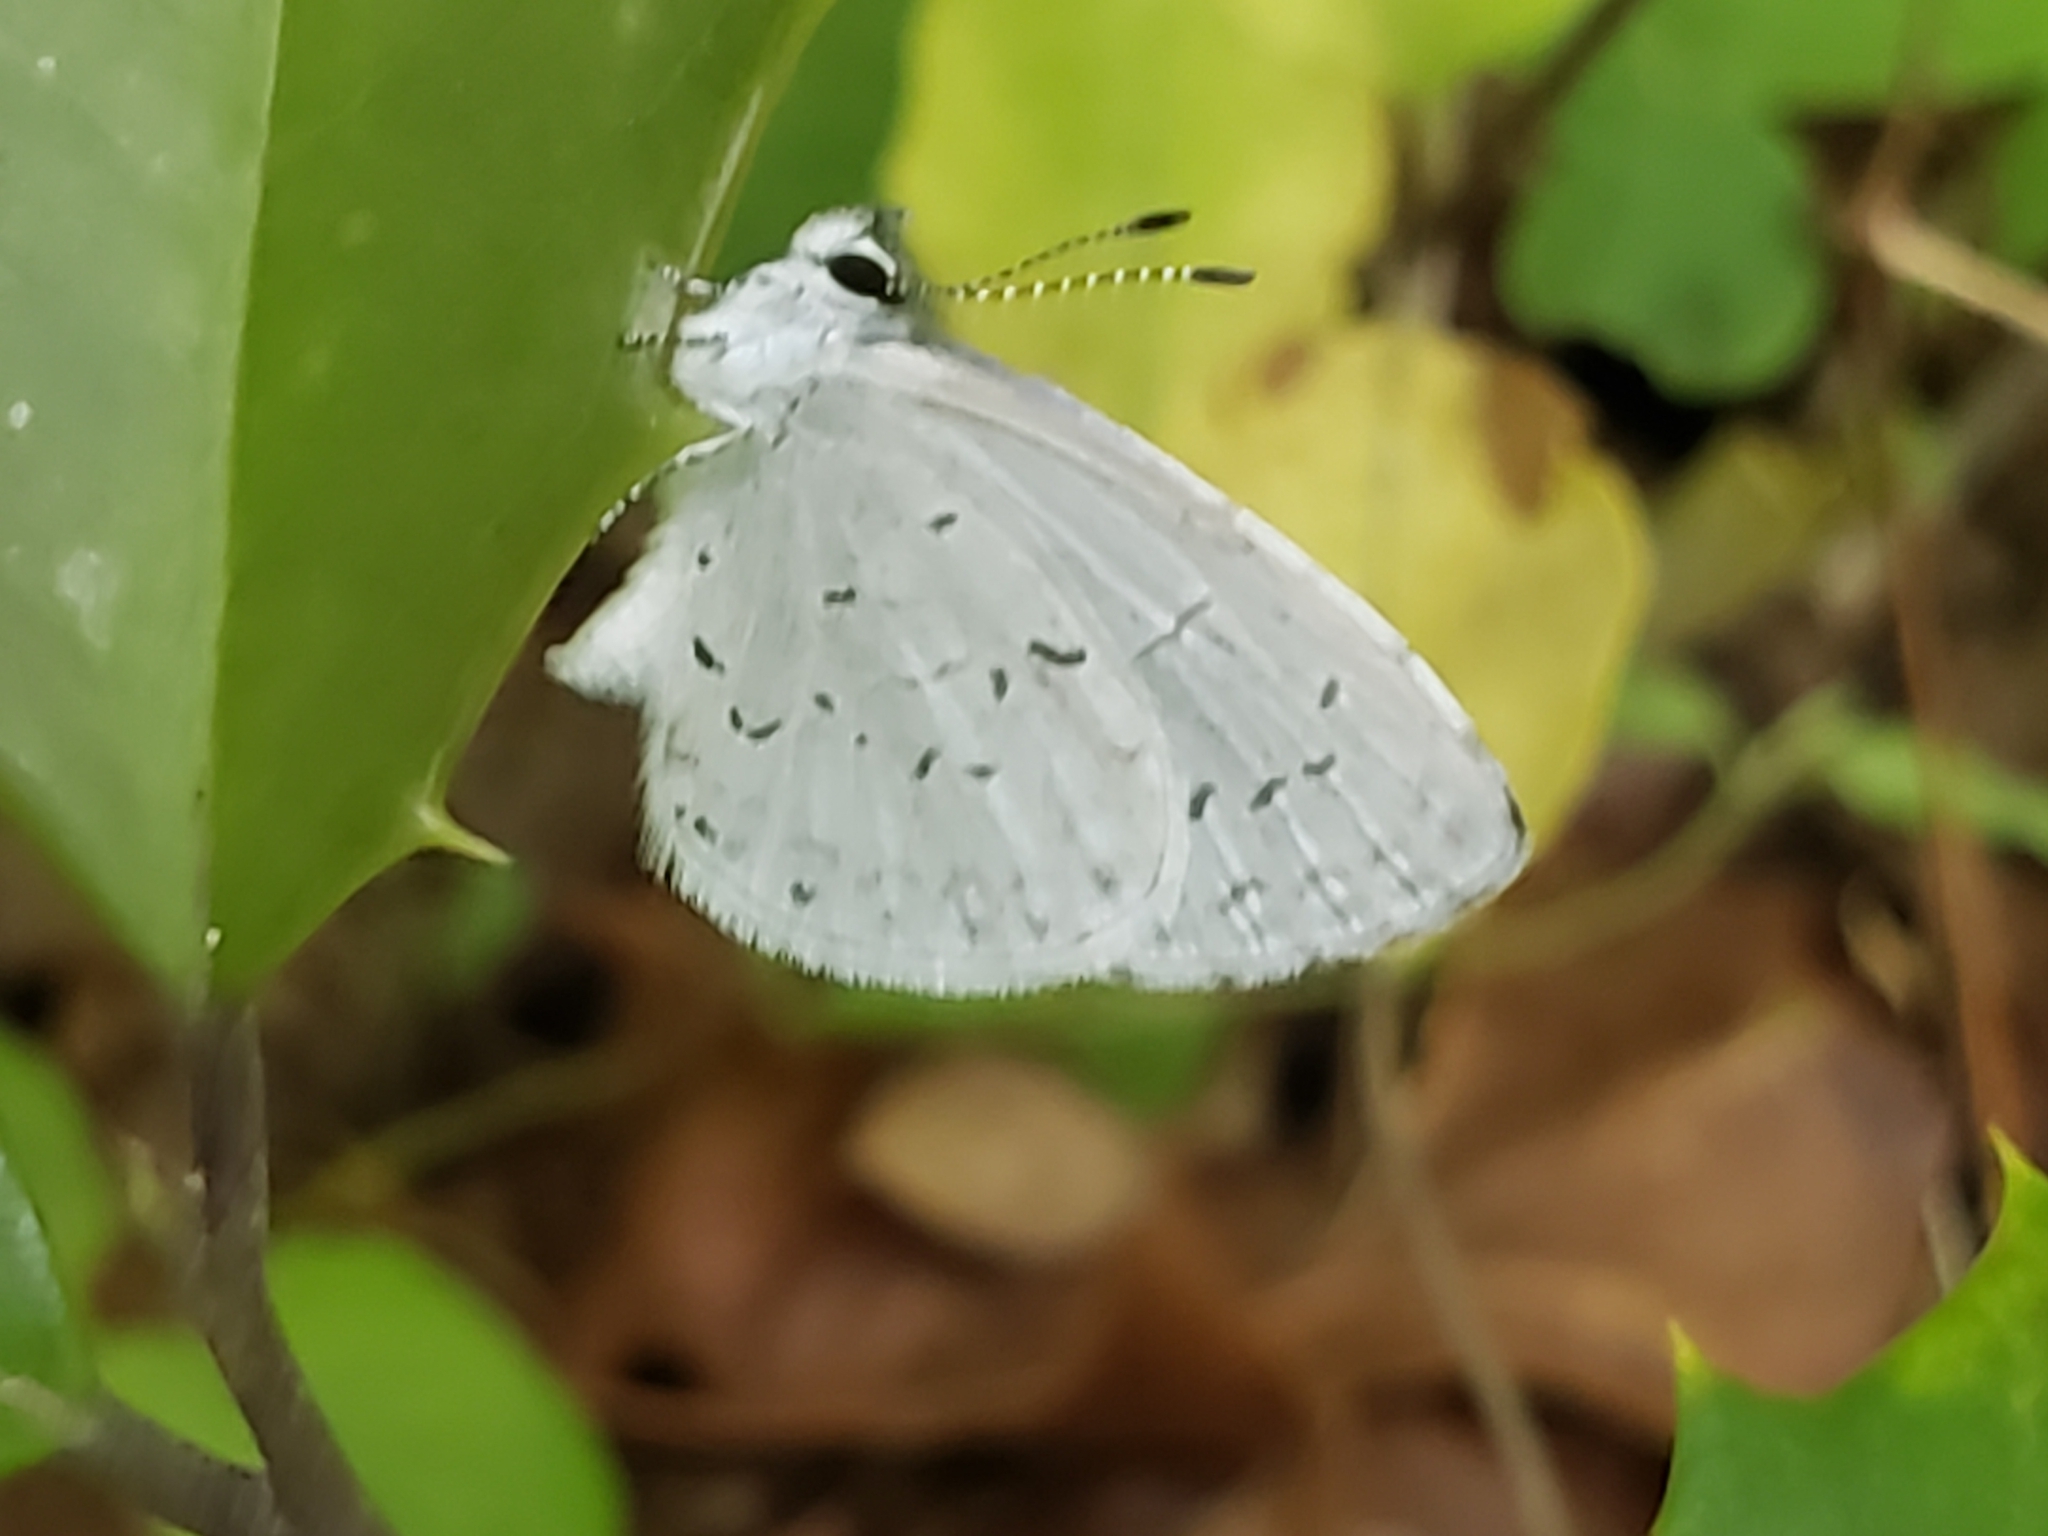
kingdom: Animalia
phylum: Arthropoda
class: Insecta
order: Lepidoptera
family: Lycaenidae
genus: Cyaniris
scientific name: Cyaniris neglecta
